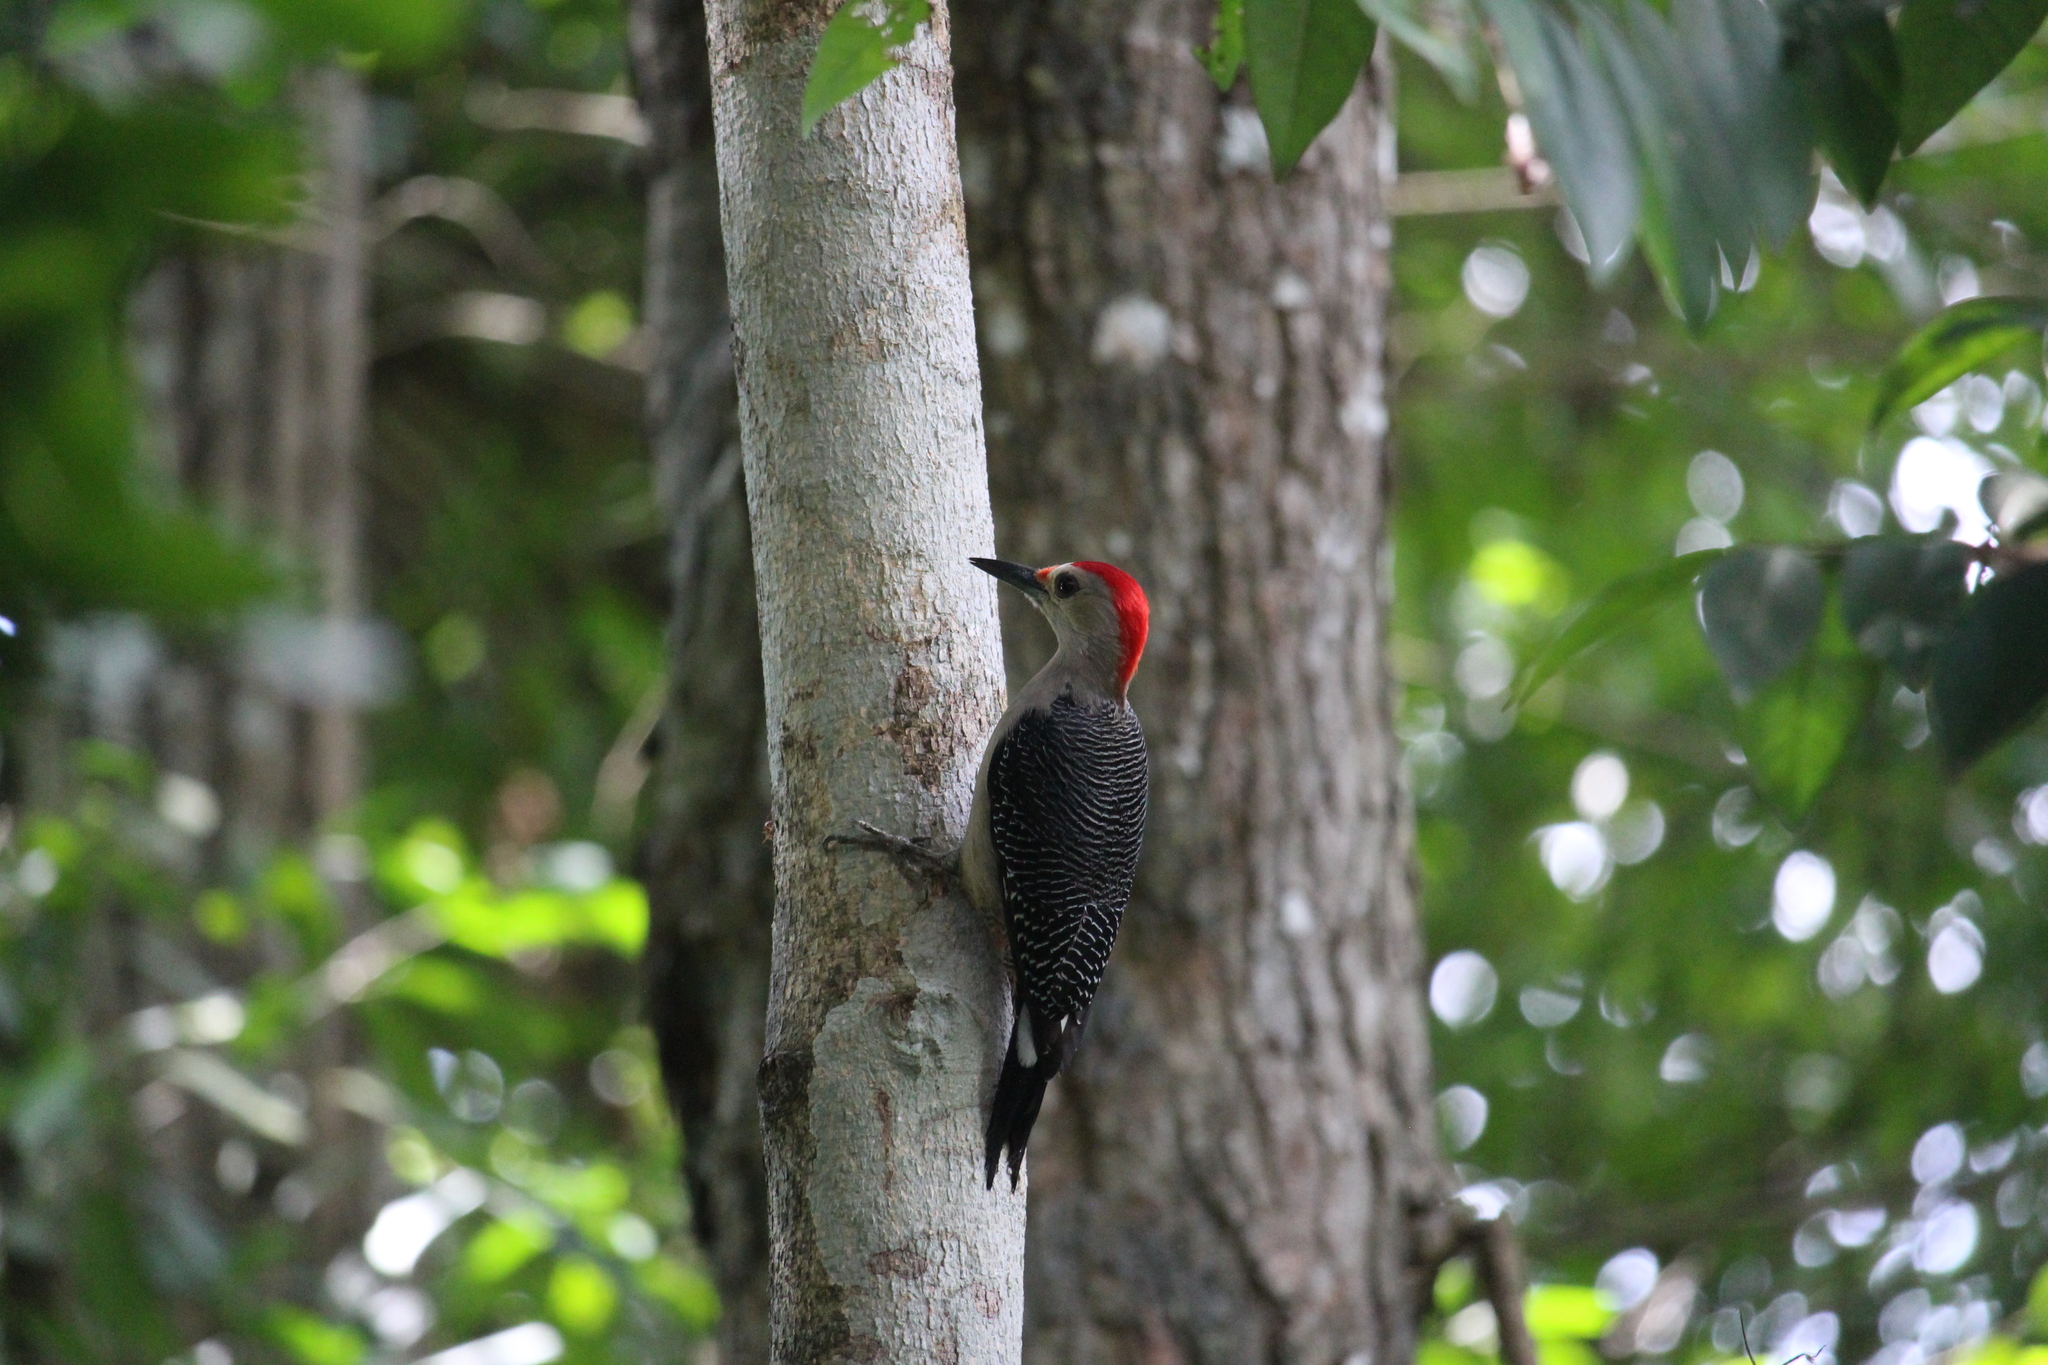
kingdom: Animalia
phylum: Chordata
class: Aves
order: Piciformes
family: Picidae
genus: Melanerpes
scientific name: Melanerpes aurifrons
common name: Golden-fronted woodpecker
